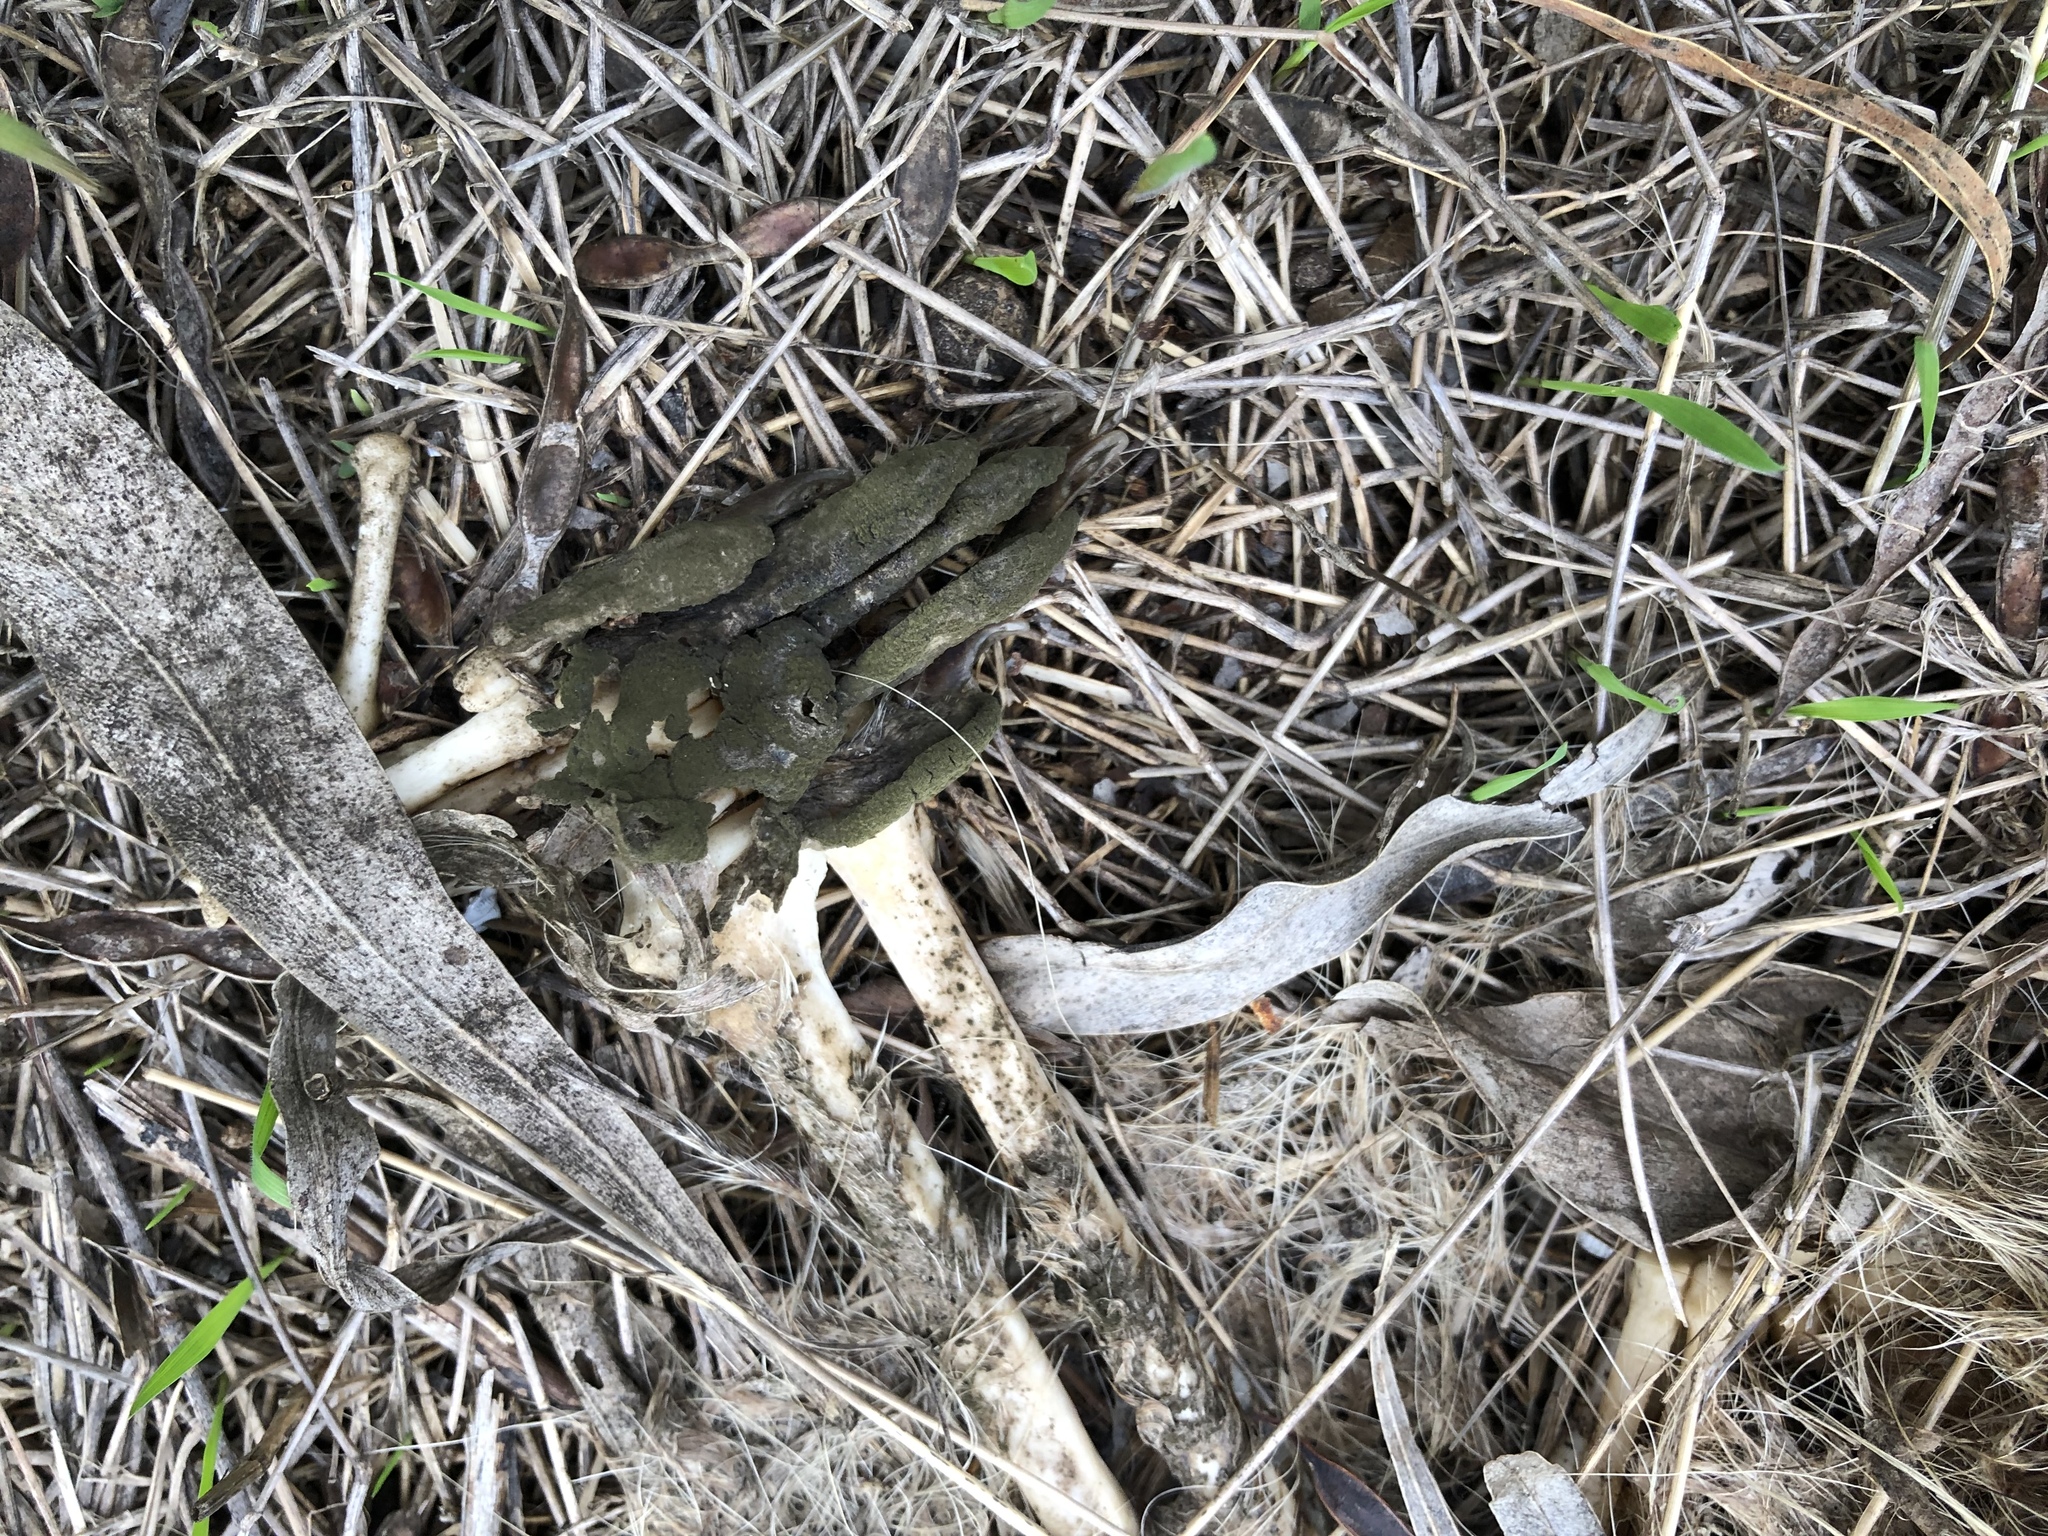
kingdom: Animalia
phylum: Chordata
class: Mammalia
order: Carnivora
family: Procyonidae
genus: Procyon
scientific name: Procyon lotor
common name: Raccoon
